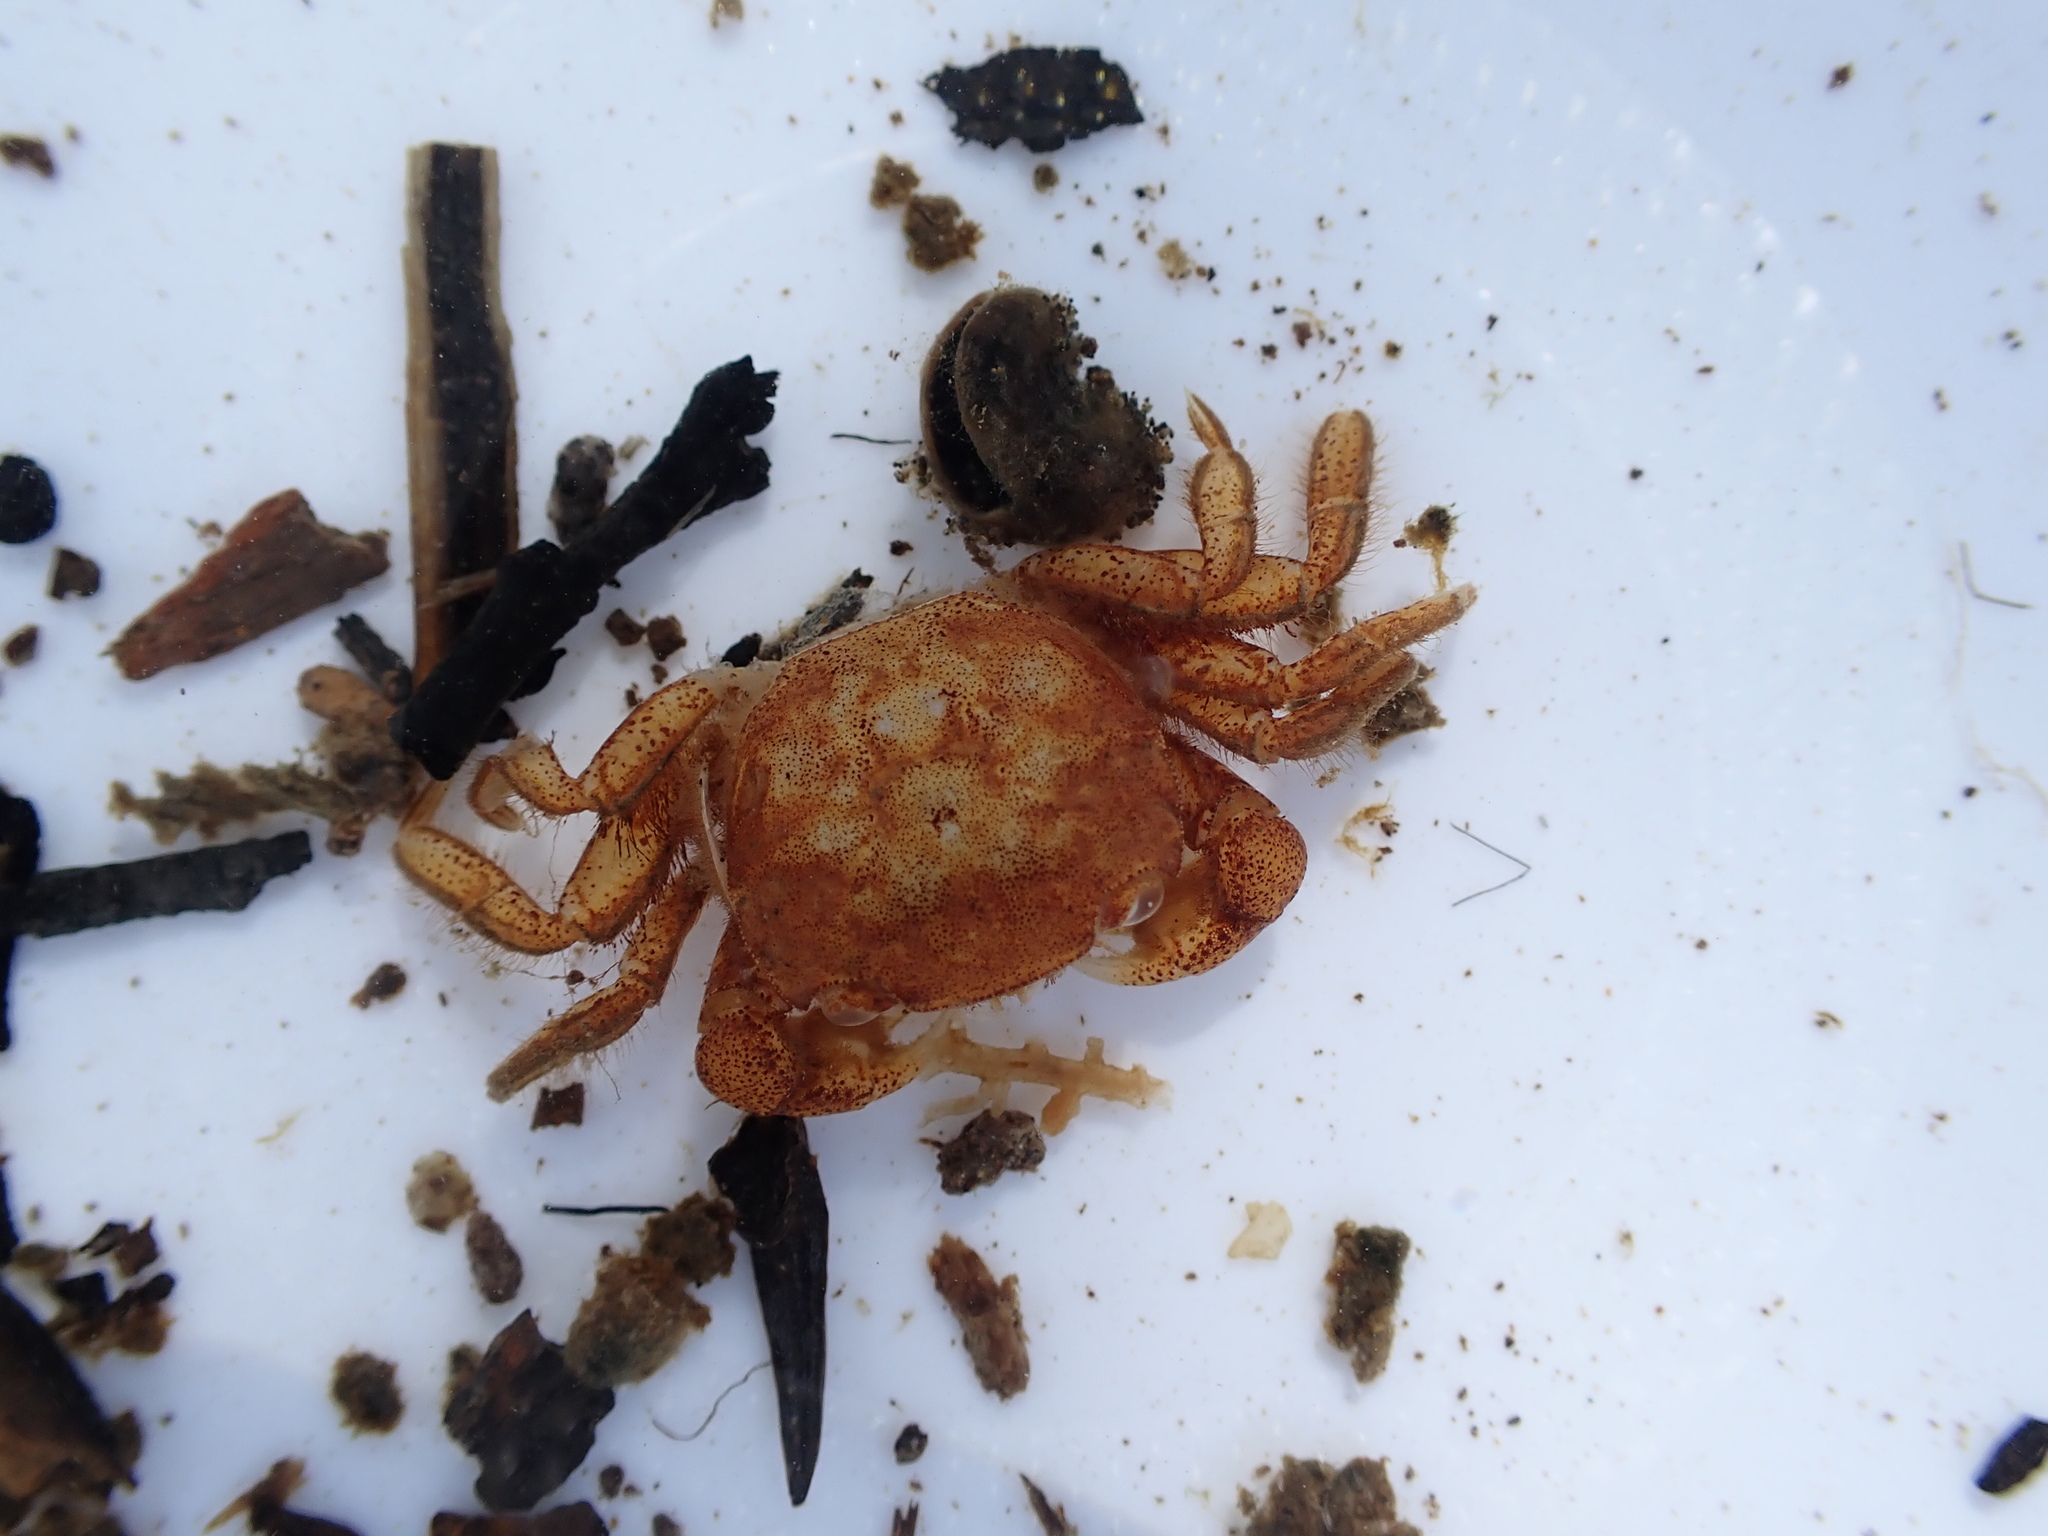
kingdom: Animalia
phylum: Arthropoda
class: Malacostraca
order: Decapoda
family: Varunidae
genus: Hemigrapsus
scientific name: Hemigrapsus crenulatus
